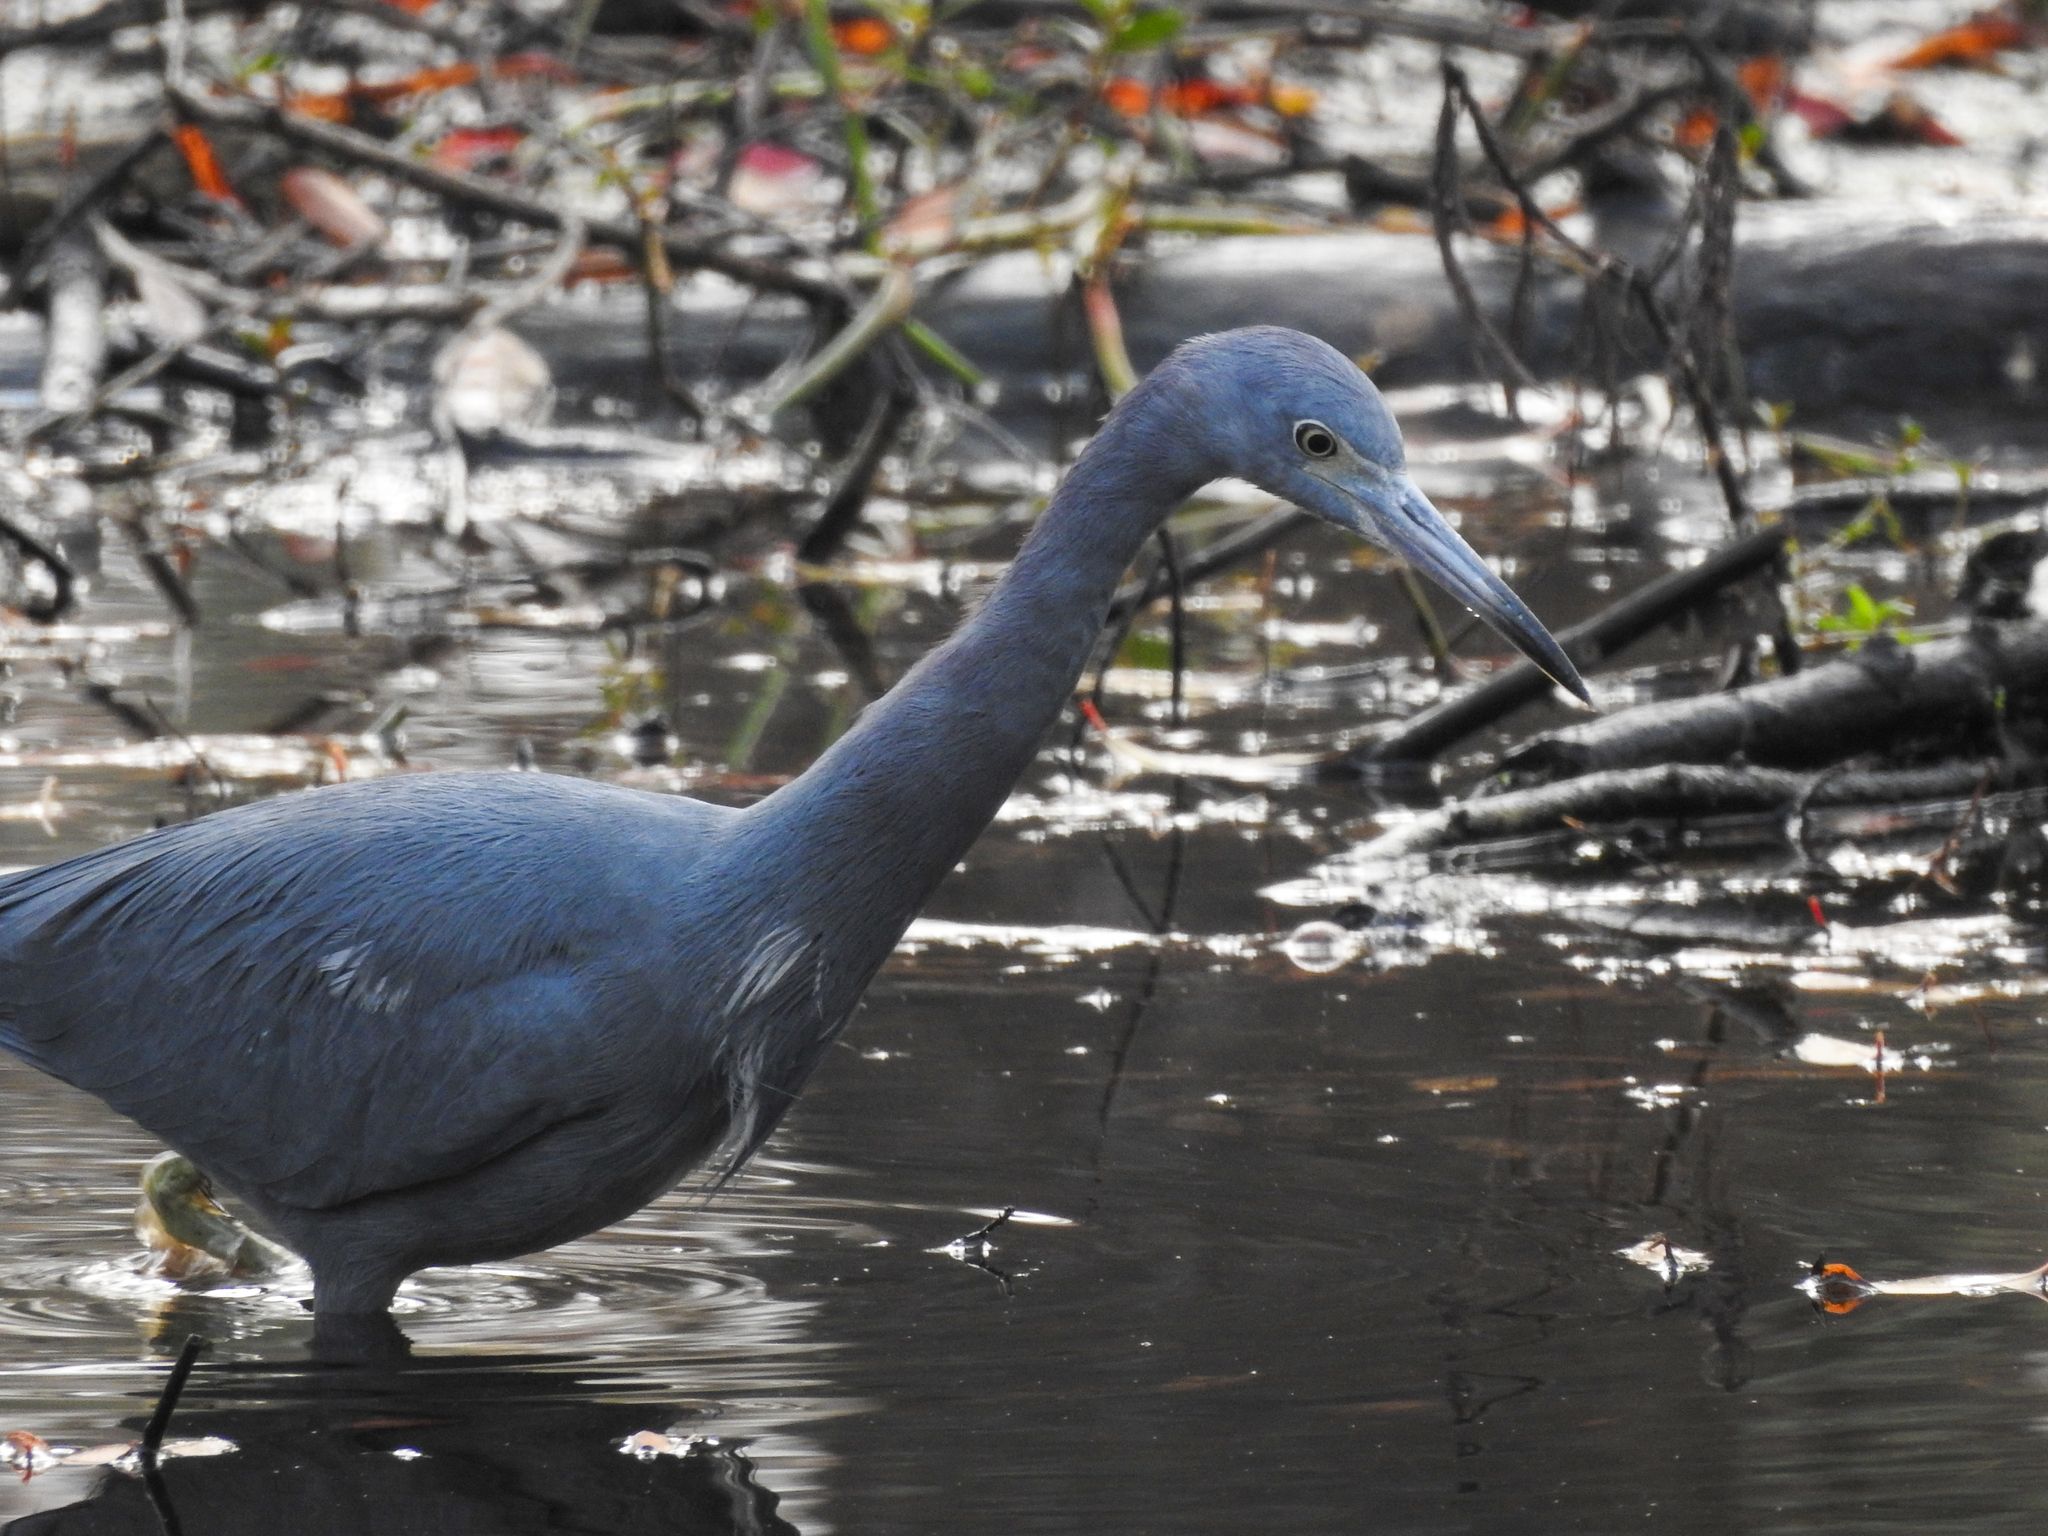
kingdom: Animalia
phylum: Chordata
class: Aves
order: Pelecaniformes
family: Ardeidae
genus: Egretta
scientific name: Egretta caerulea
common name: Little blue heron
